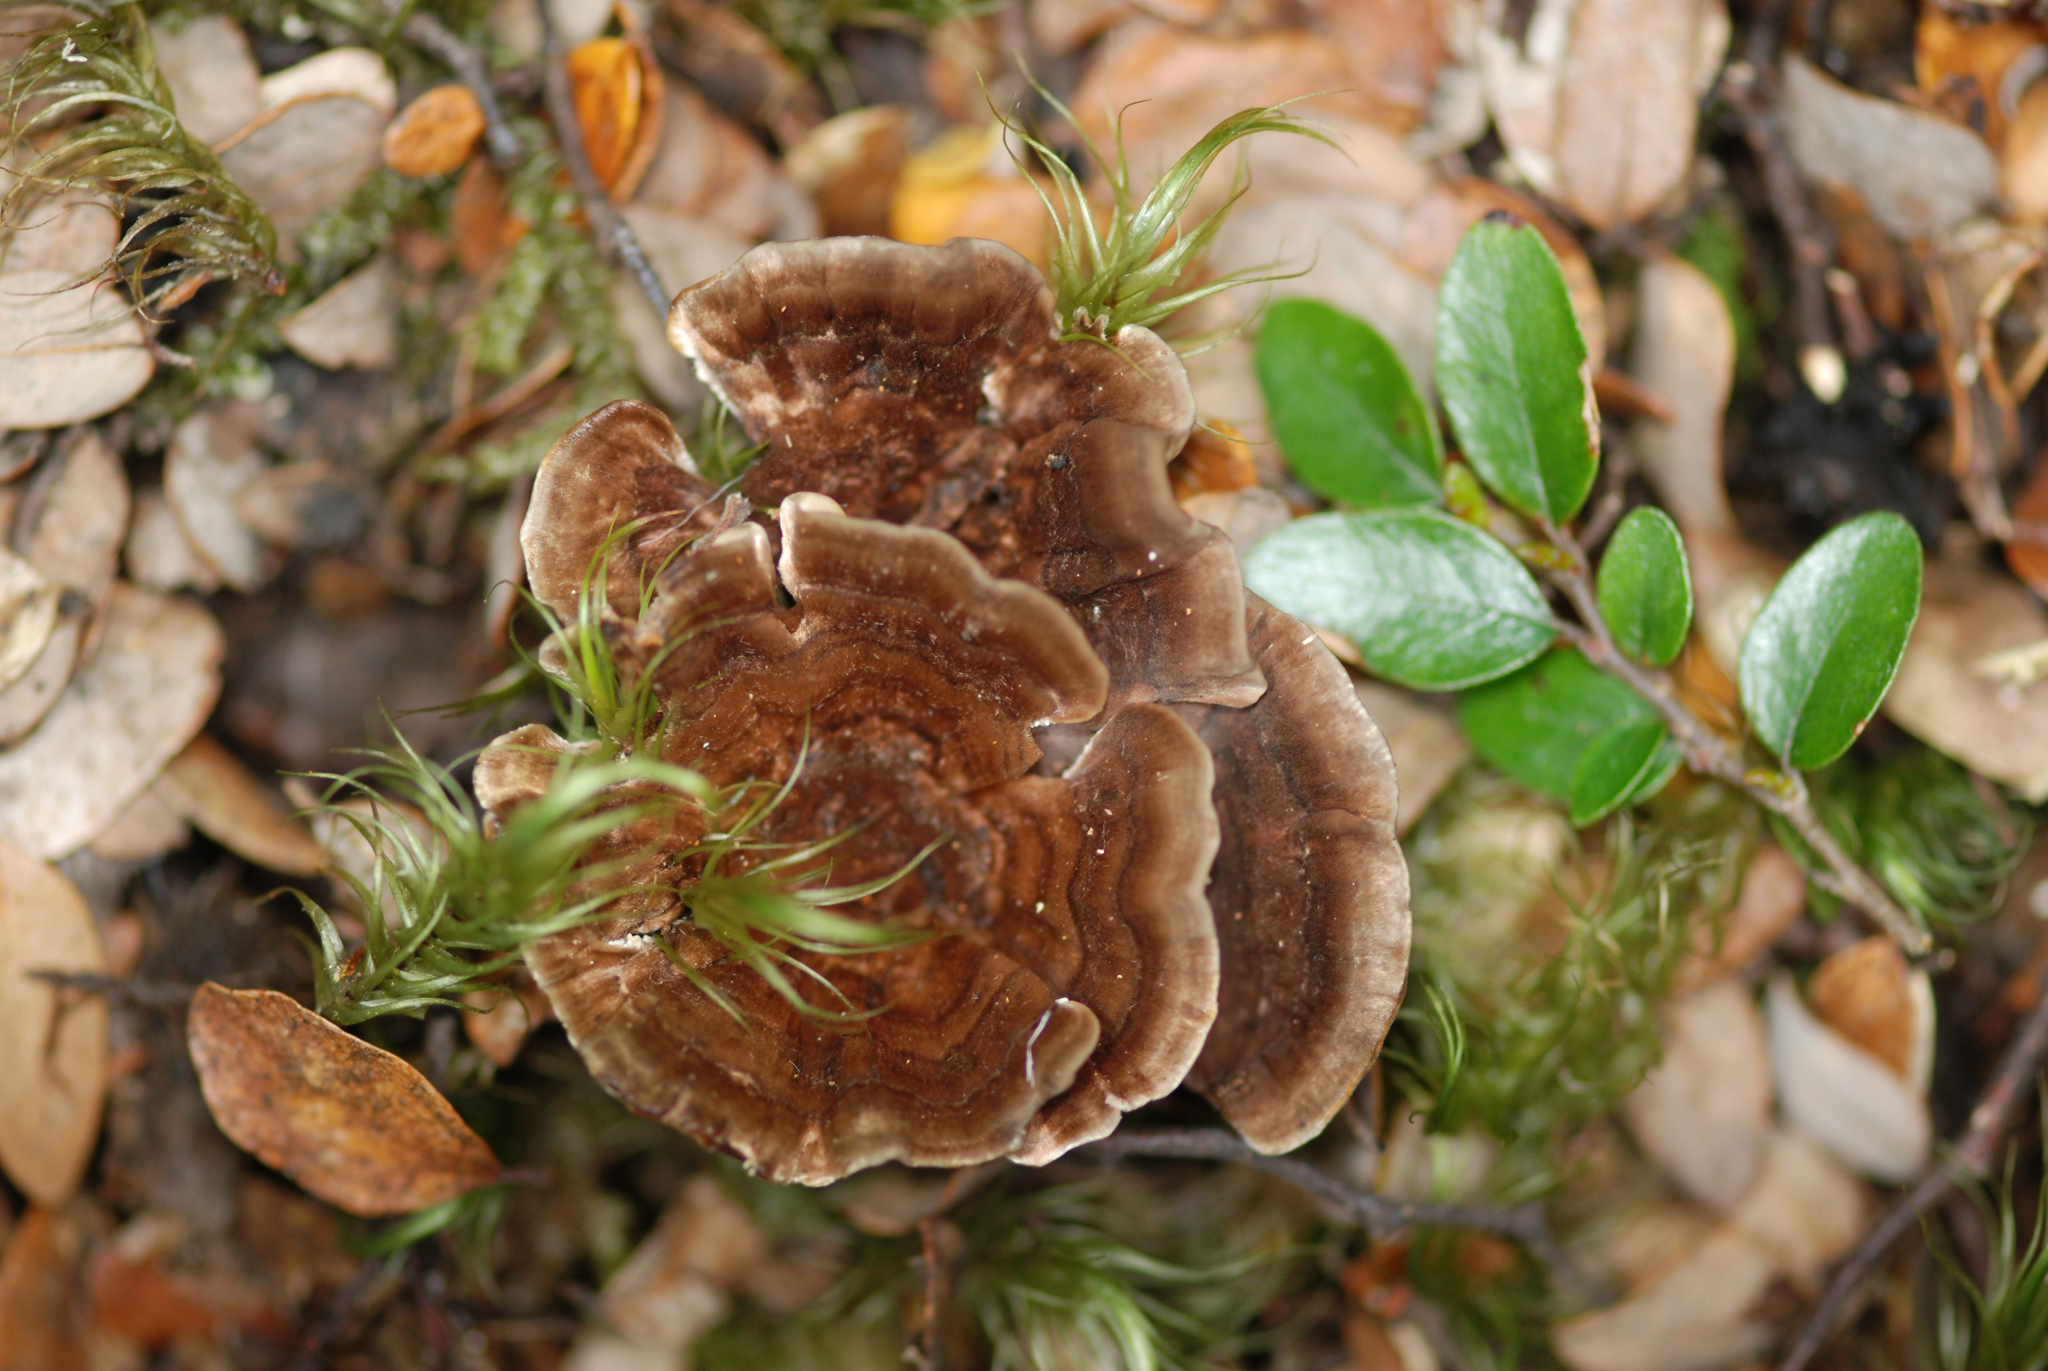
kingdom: Fungi
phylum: Basidiomycota
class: Agaricomycetes
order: Thelephorales
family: Thelephoraceae
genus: Phellodon
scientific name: Phellodon plicatus
